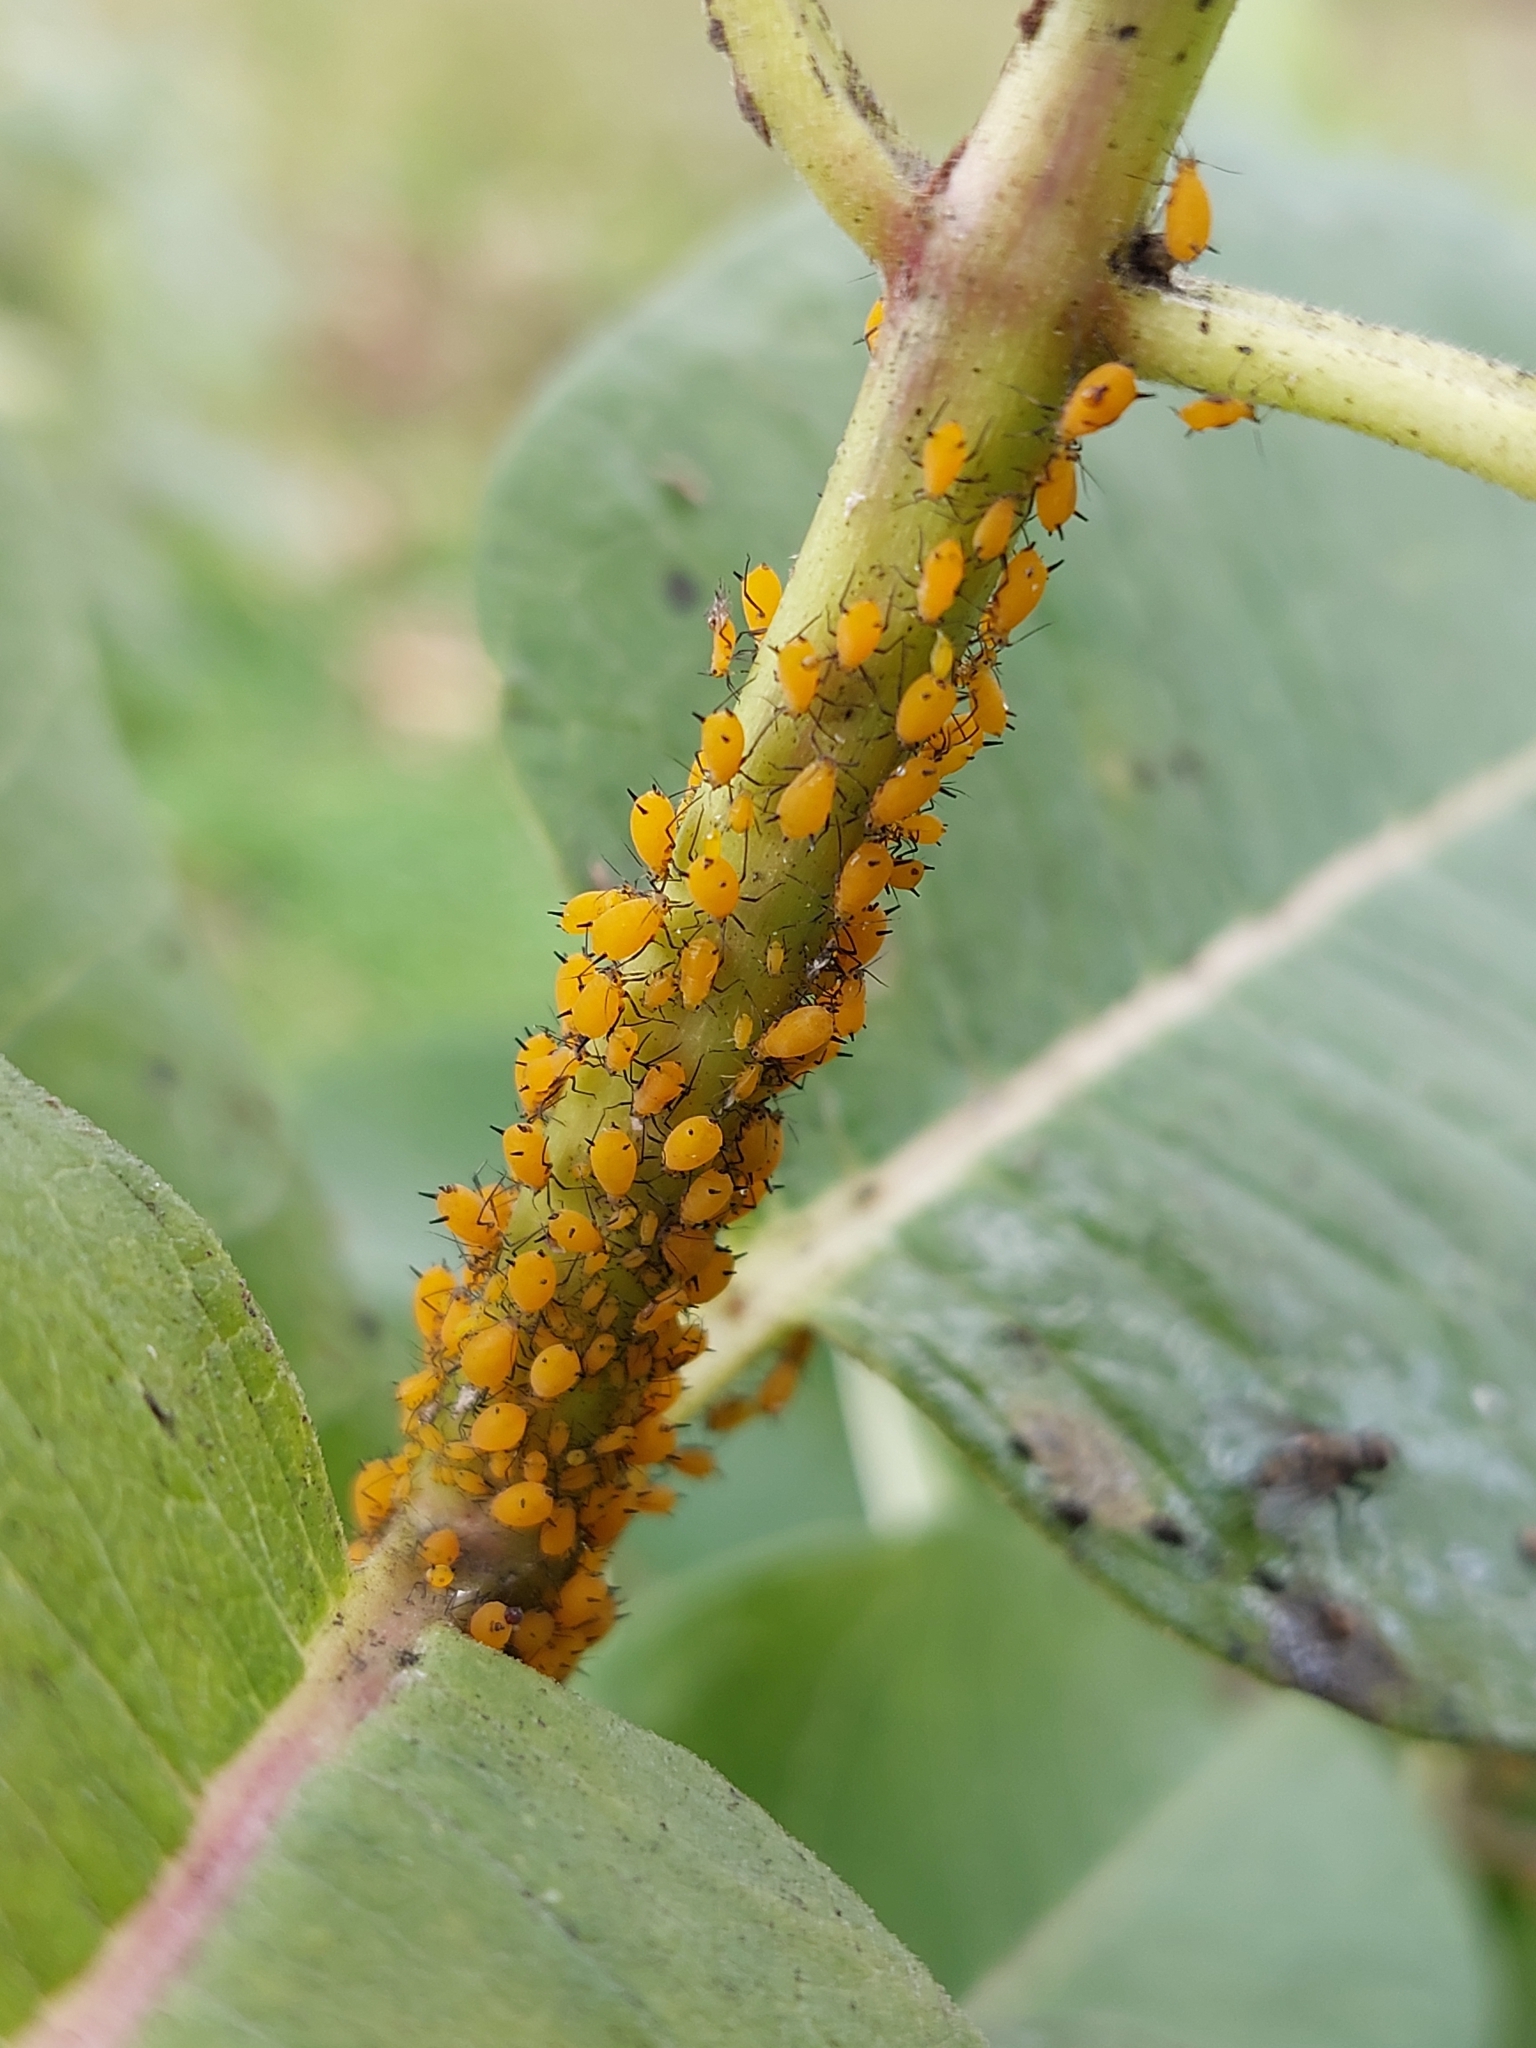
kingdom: Animalia
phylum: Arthropoda
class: Insecta
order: Hemiptera
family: Aphididae
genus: Aphis
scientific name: Aphis nerii
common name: Oleander aphid
